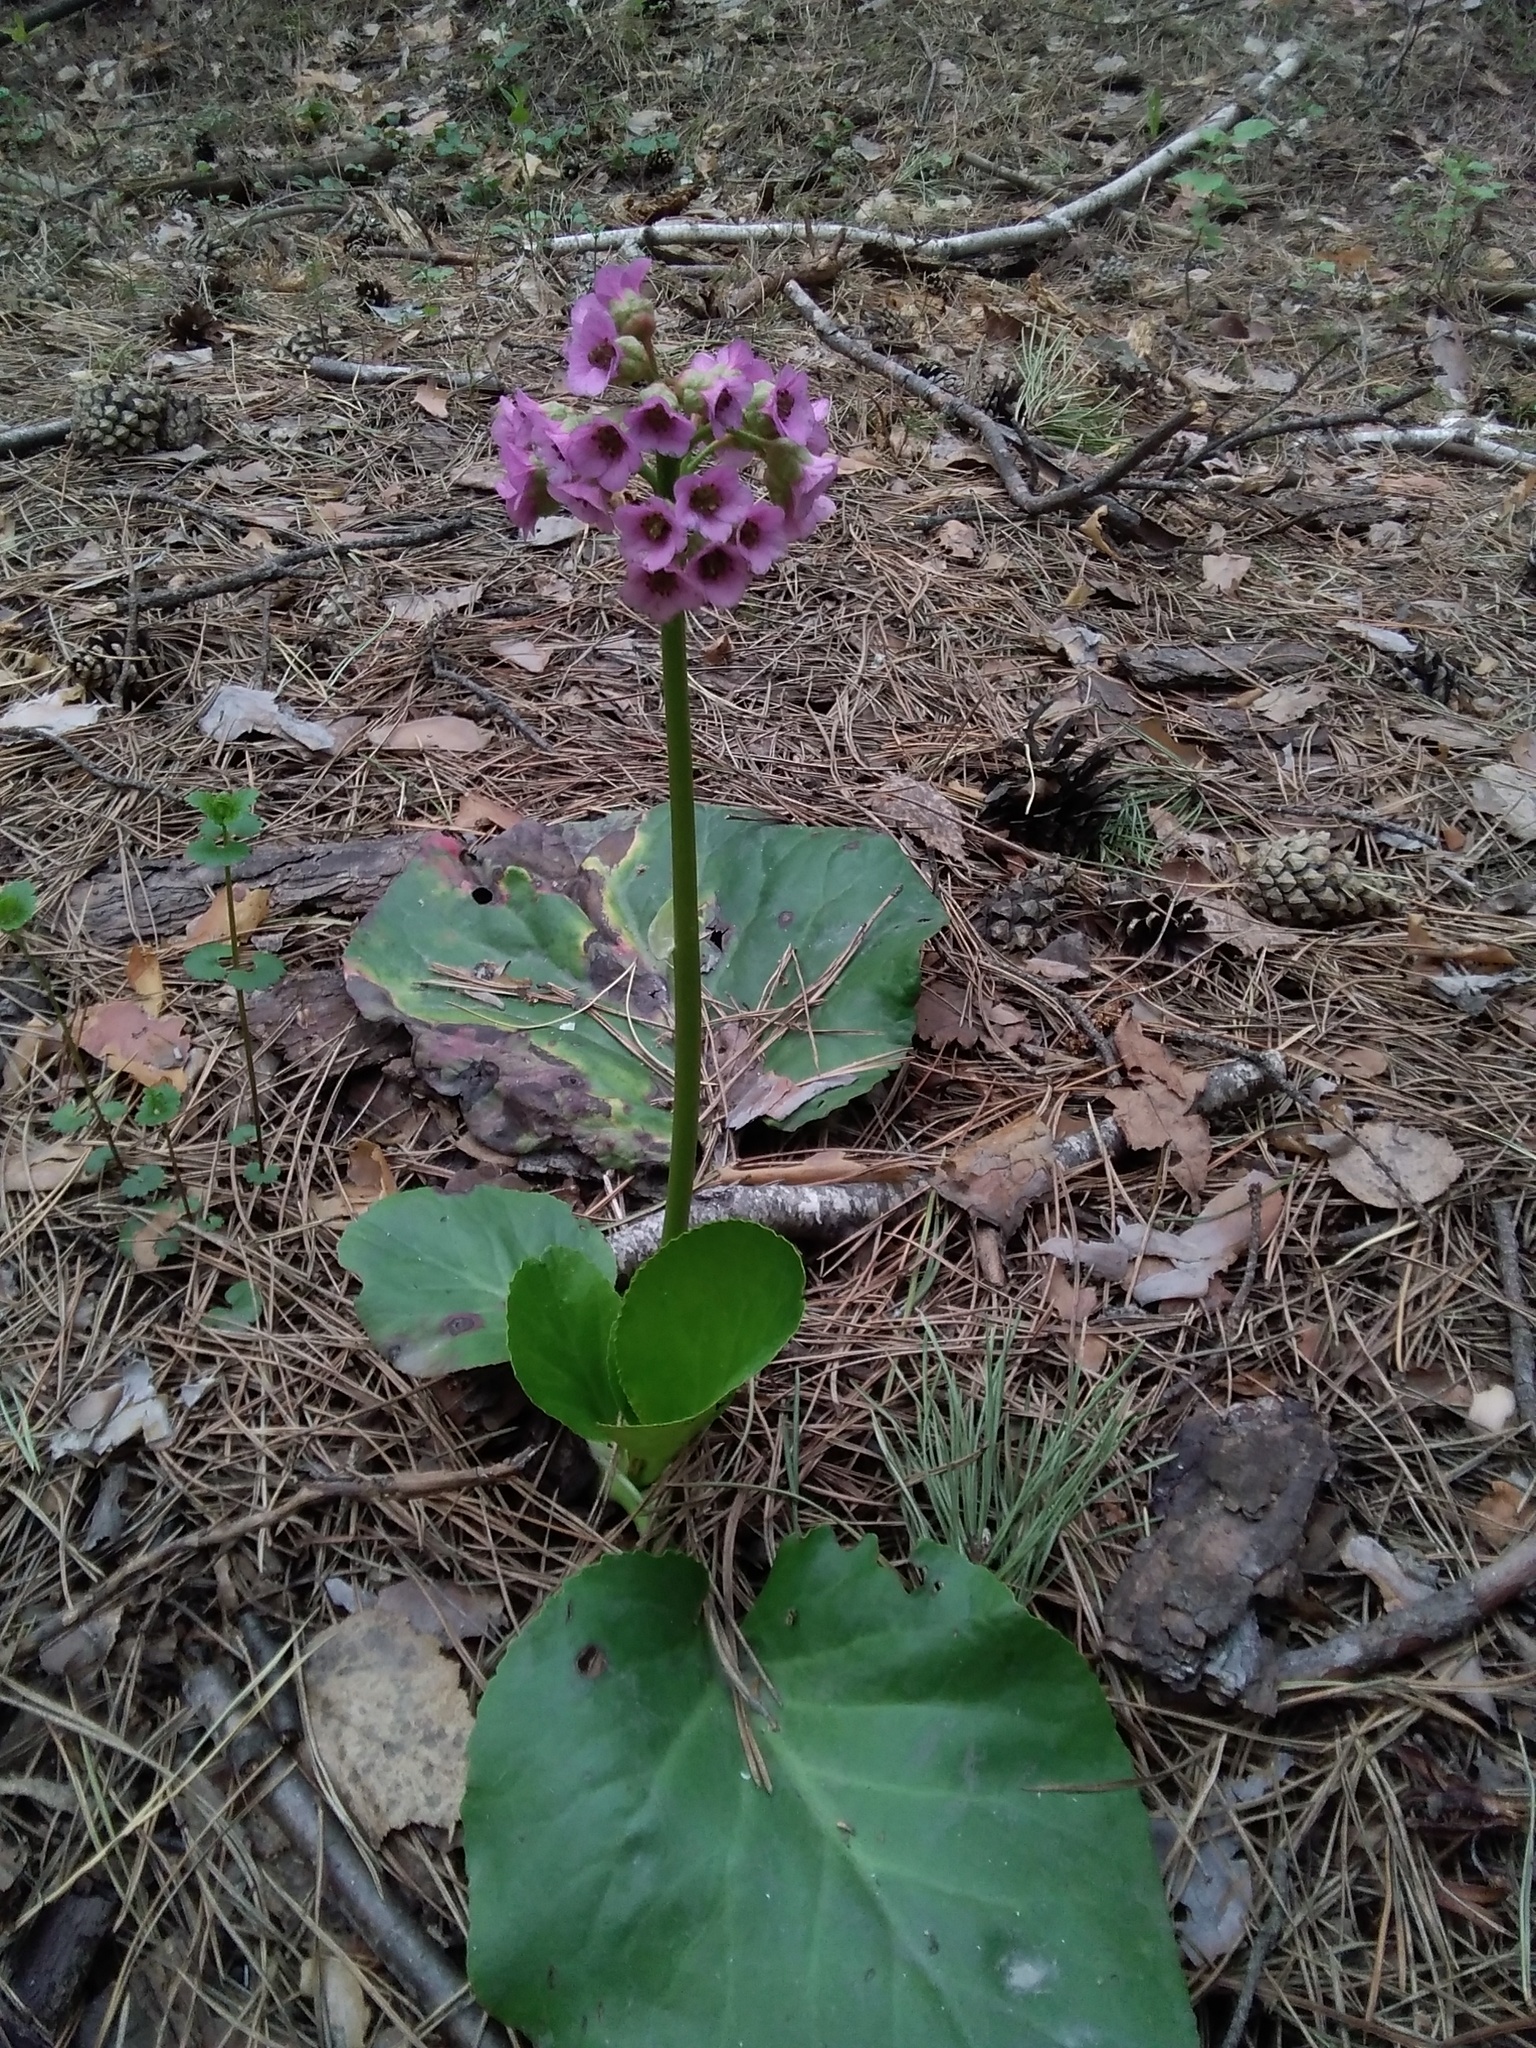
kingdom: Plantae
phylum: Tracheophyta
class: Magnoliopsida
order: Saxifragales
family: Saxifragaceae
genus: Bergenia
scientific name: Bergenia crassifolia
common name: Elephant-ears
